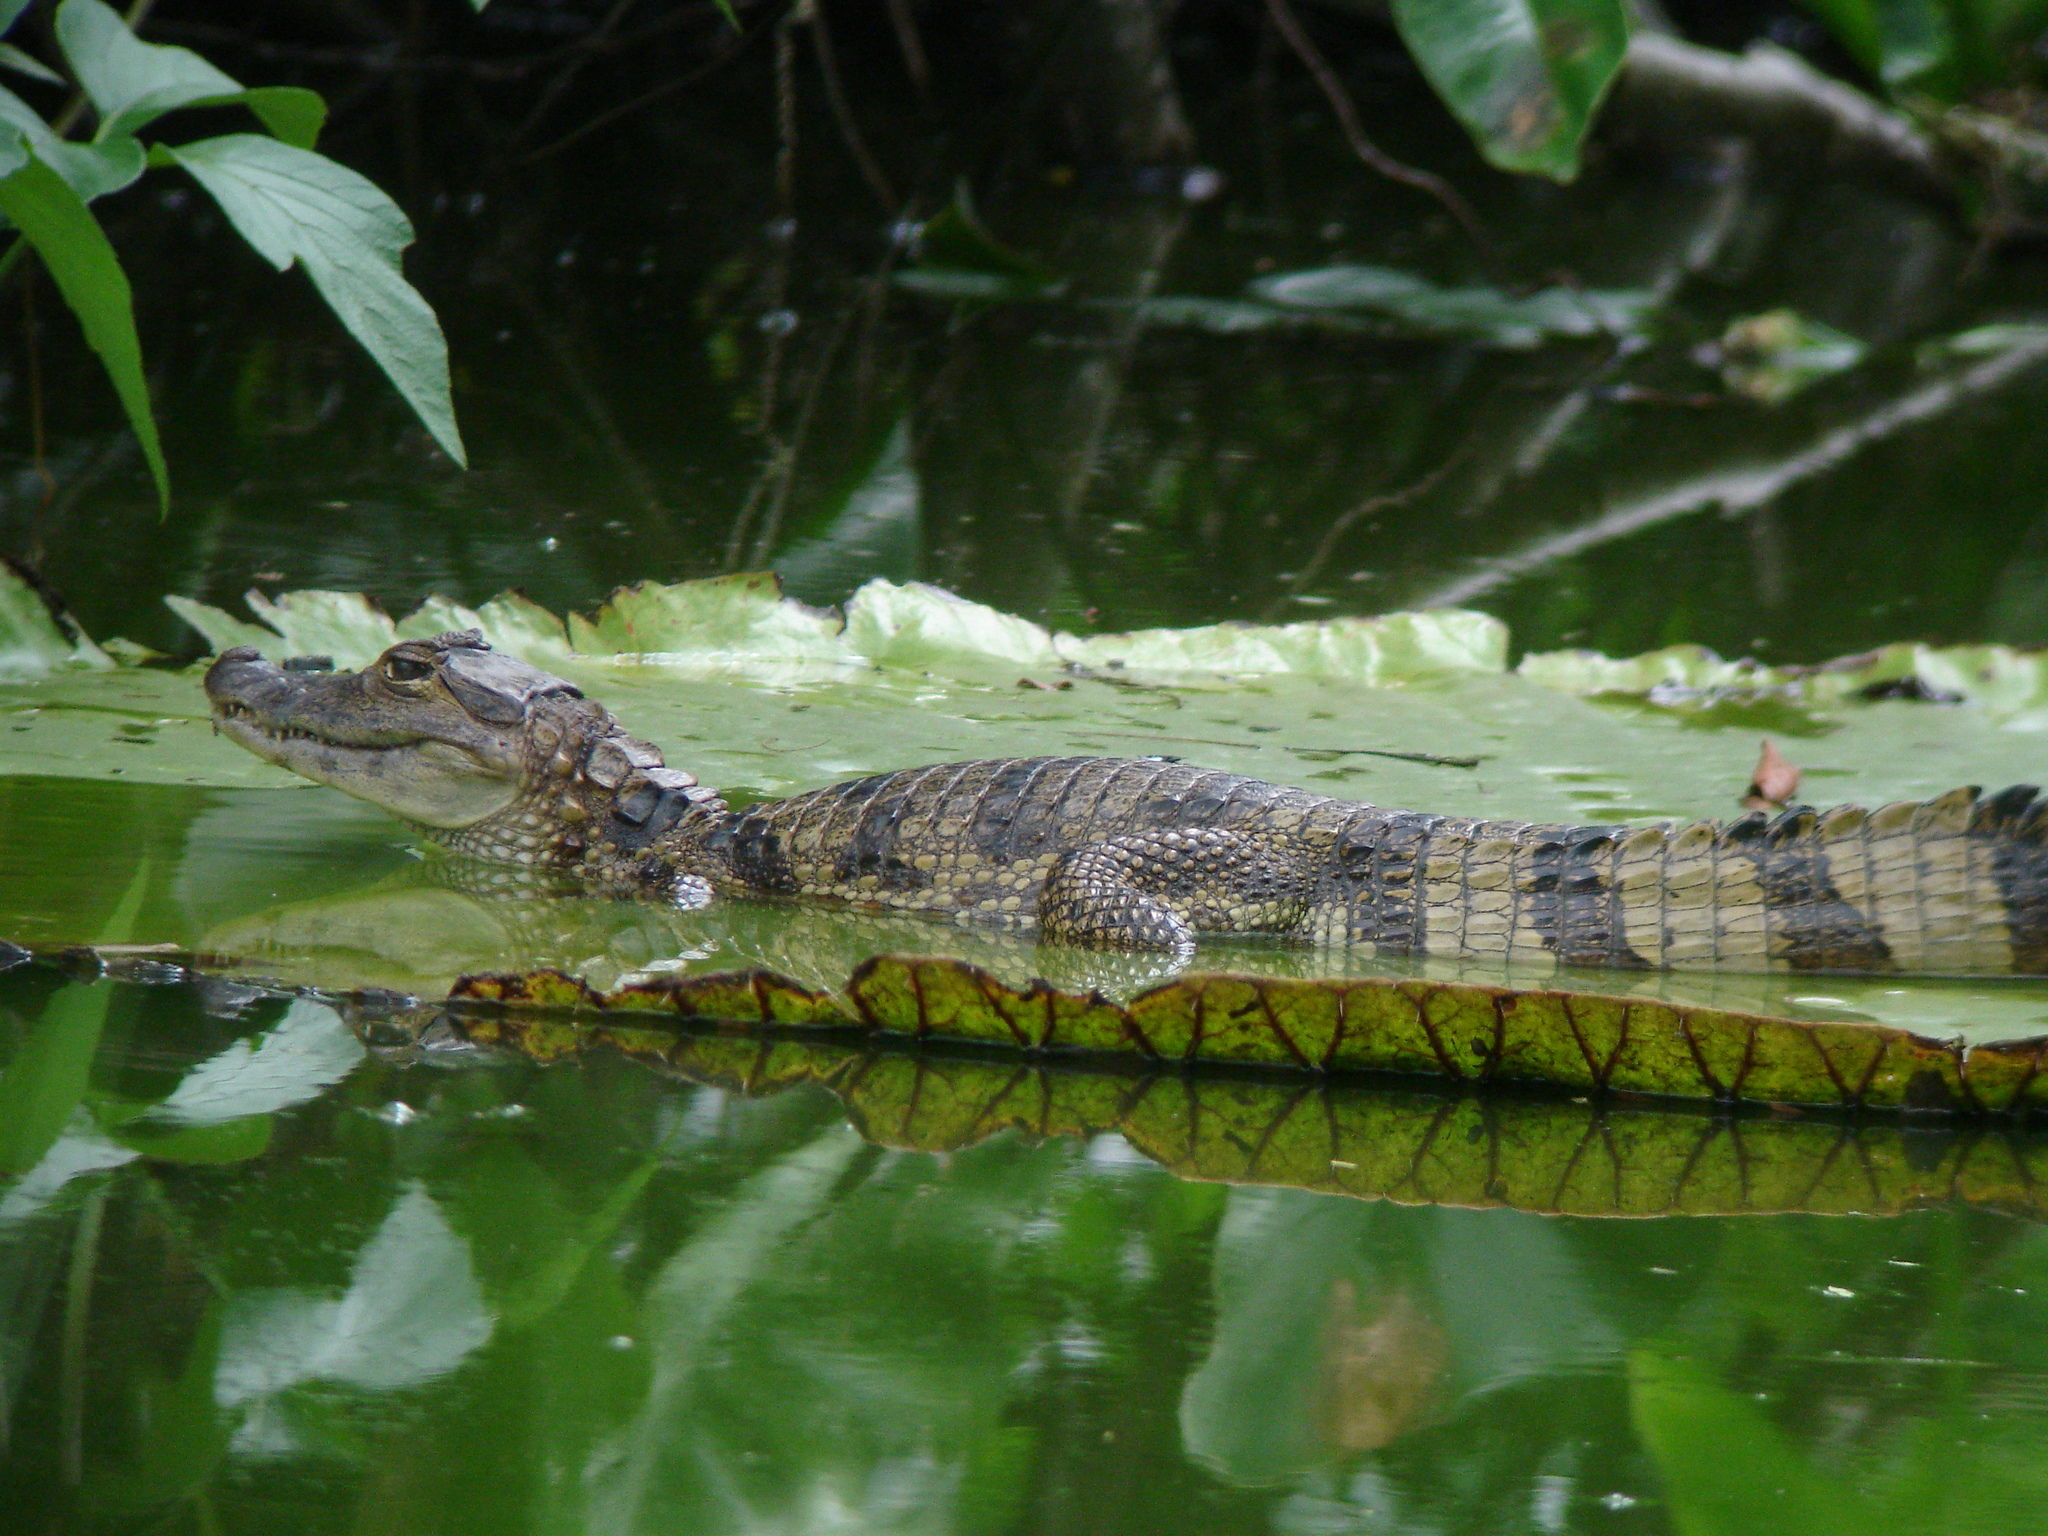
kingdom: Animalia
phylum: Chordata
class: Crocodylia
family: Alligatoridae
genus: Caiman
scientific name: Caiman crocodilus
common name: Common caiman
